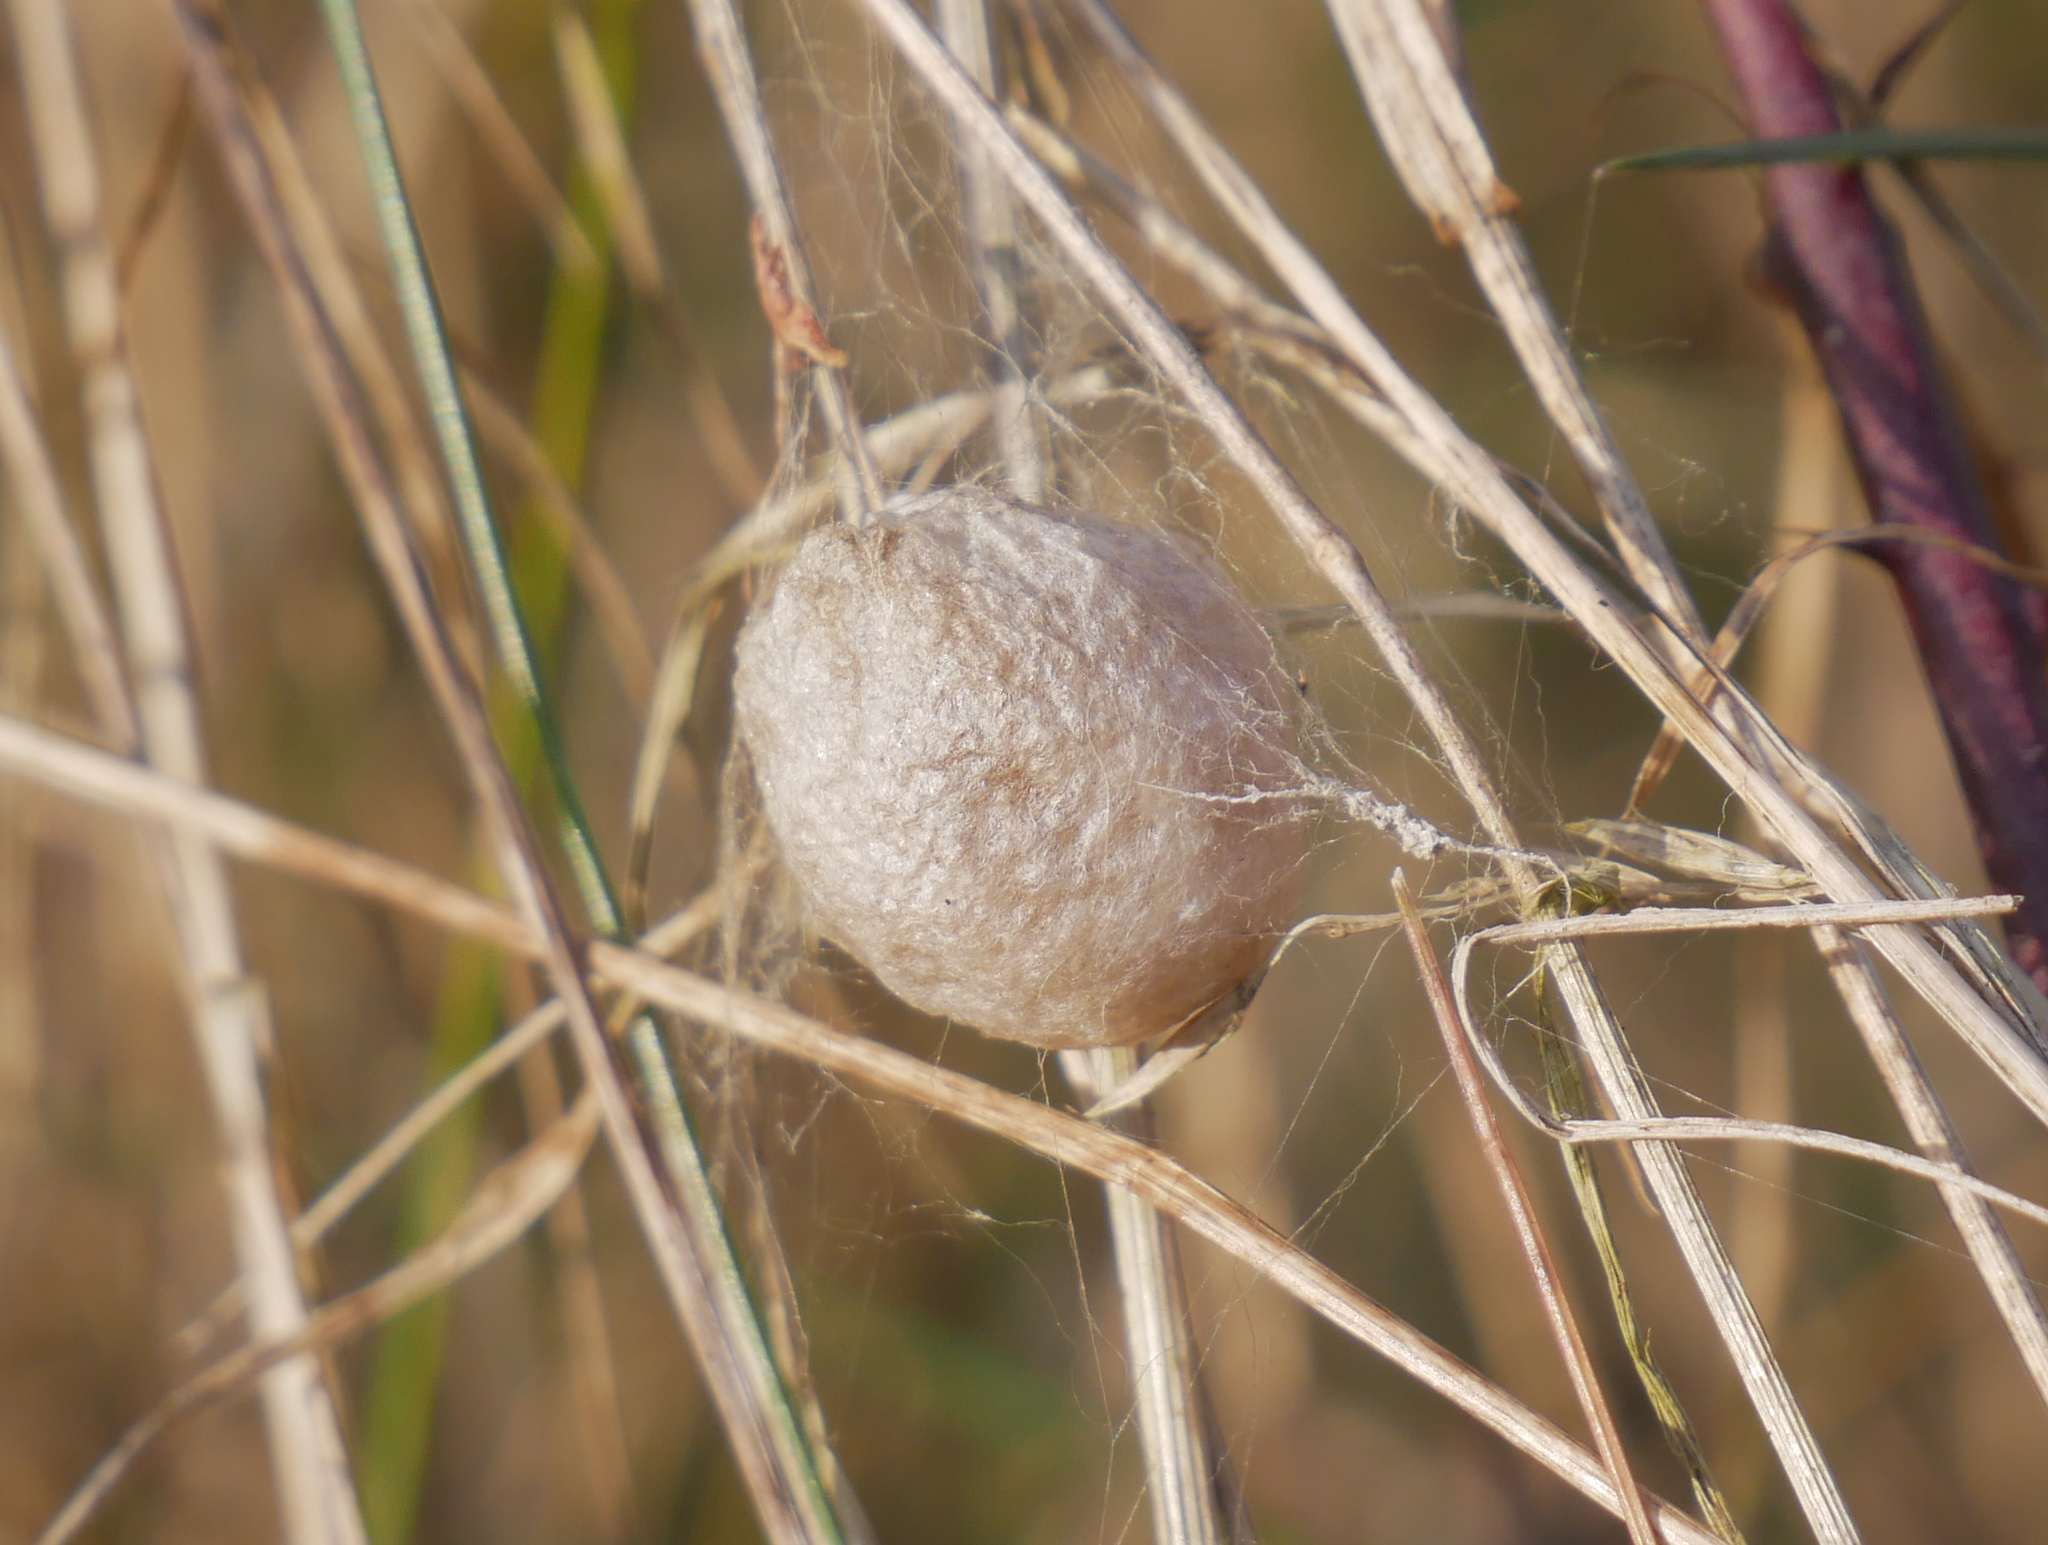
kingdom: Animalia
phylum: Arthropoda
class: Arachnida
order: Araneae
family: Araneidae
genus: Argiope
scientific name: Argiope bruennichi
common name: Wasp spider
